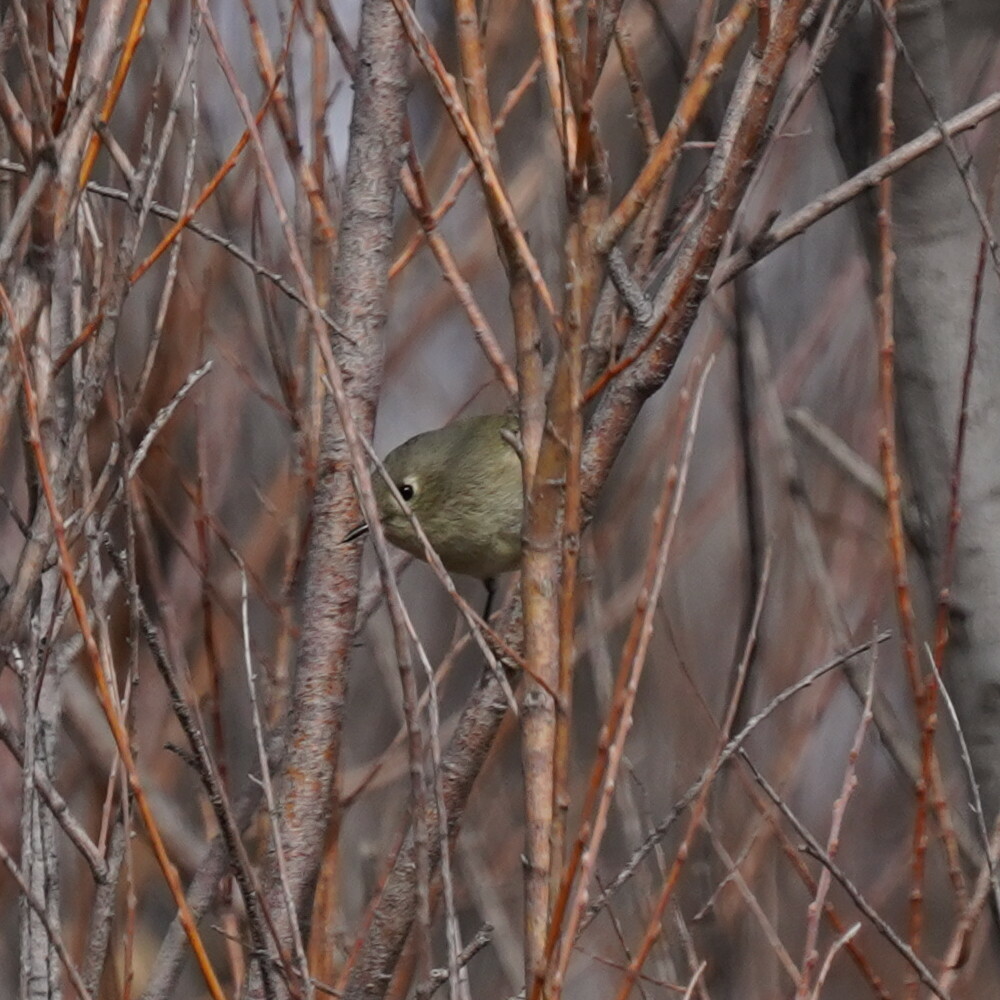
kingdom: Animalia
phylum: Chordata
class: Aves
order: Passeriformes
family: Regulidae
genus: Regulus
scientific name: Regulus calendula
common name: Ruby-crowned kinglet
